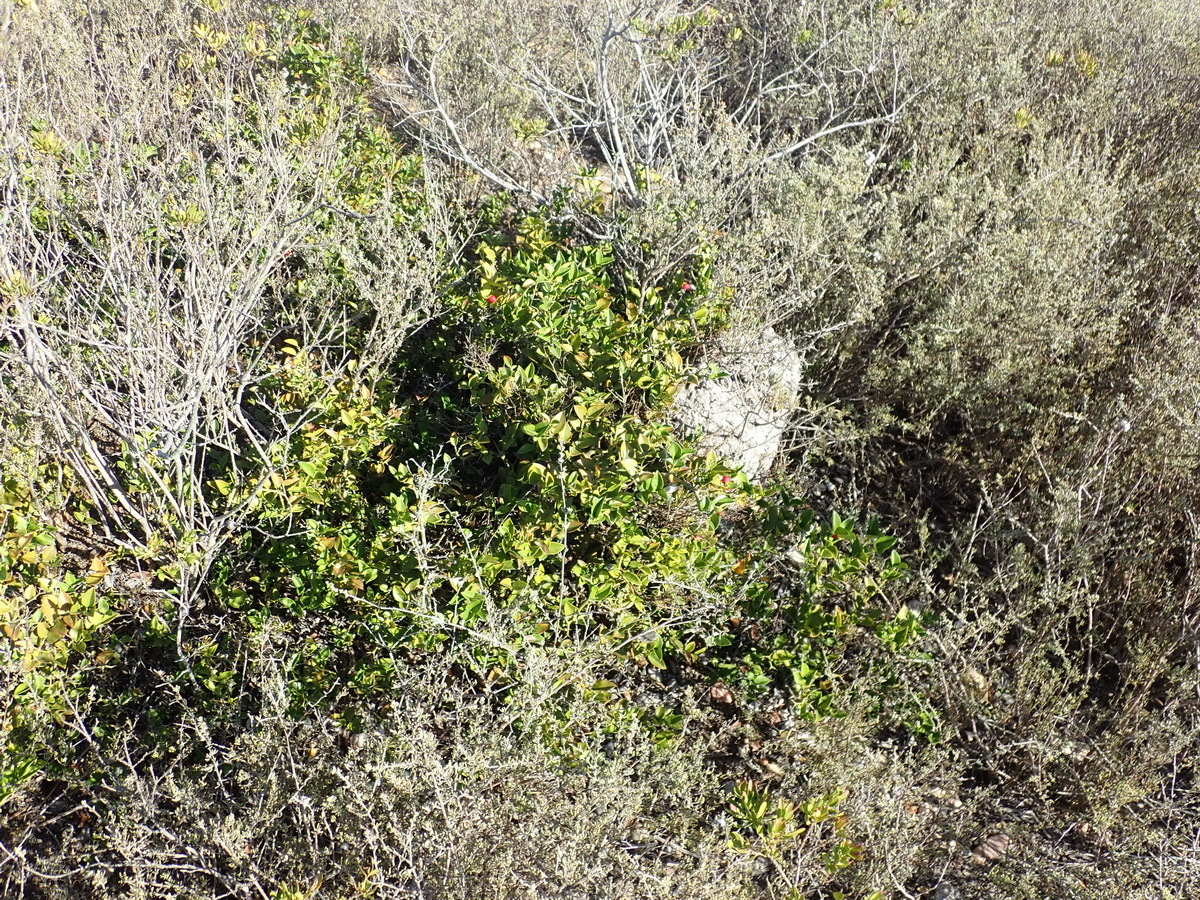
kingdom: Plantae
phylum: Tracheophyta
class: Magnoliopsida
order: Gentianales
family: Apocynaceae
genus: Carissa
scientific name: Carissa bispinosa
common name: Forest num-num
